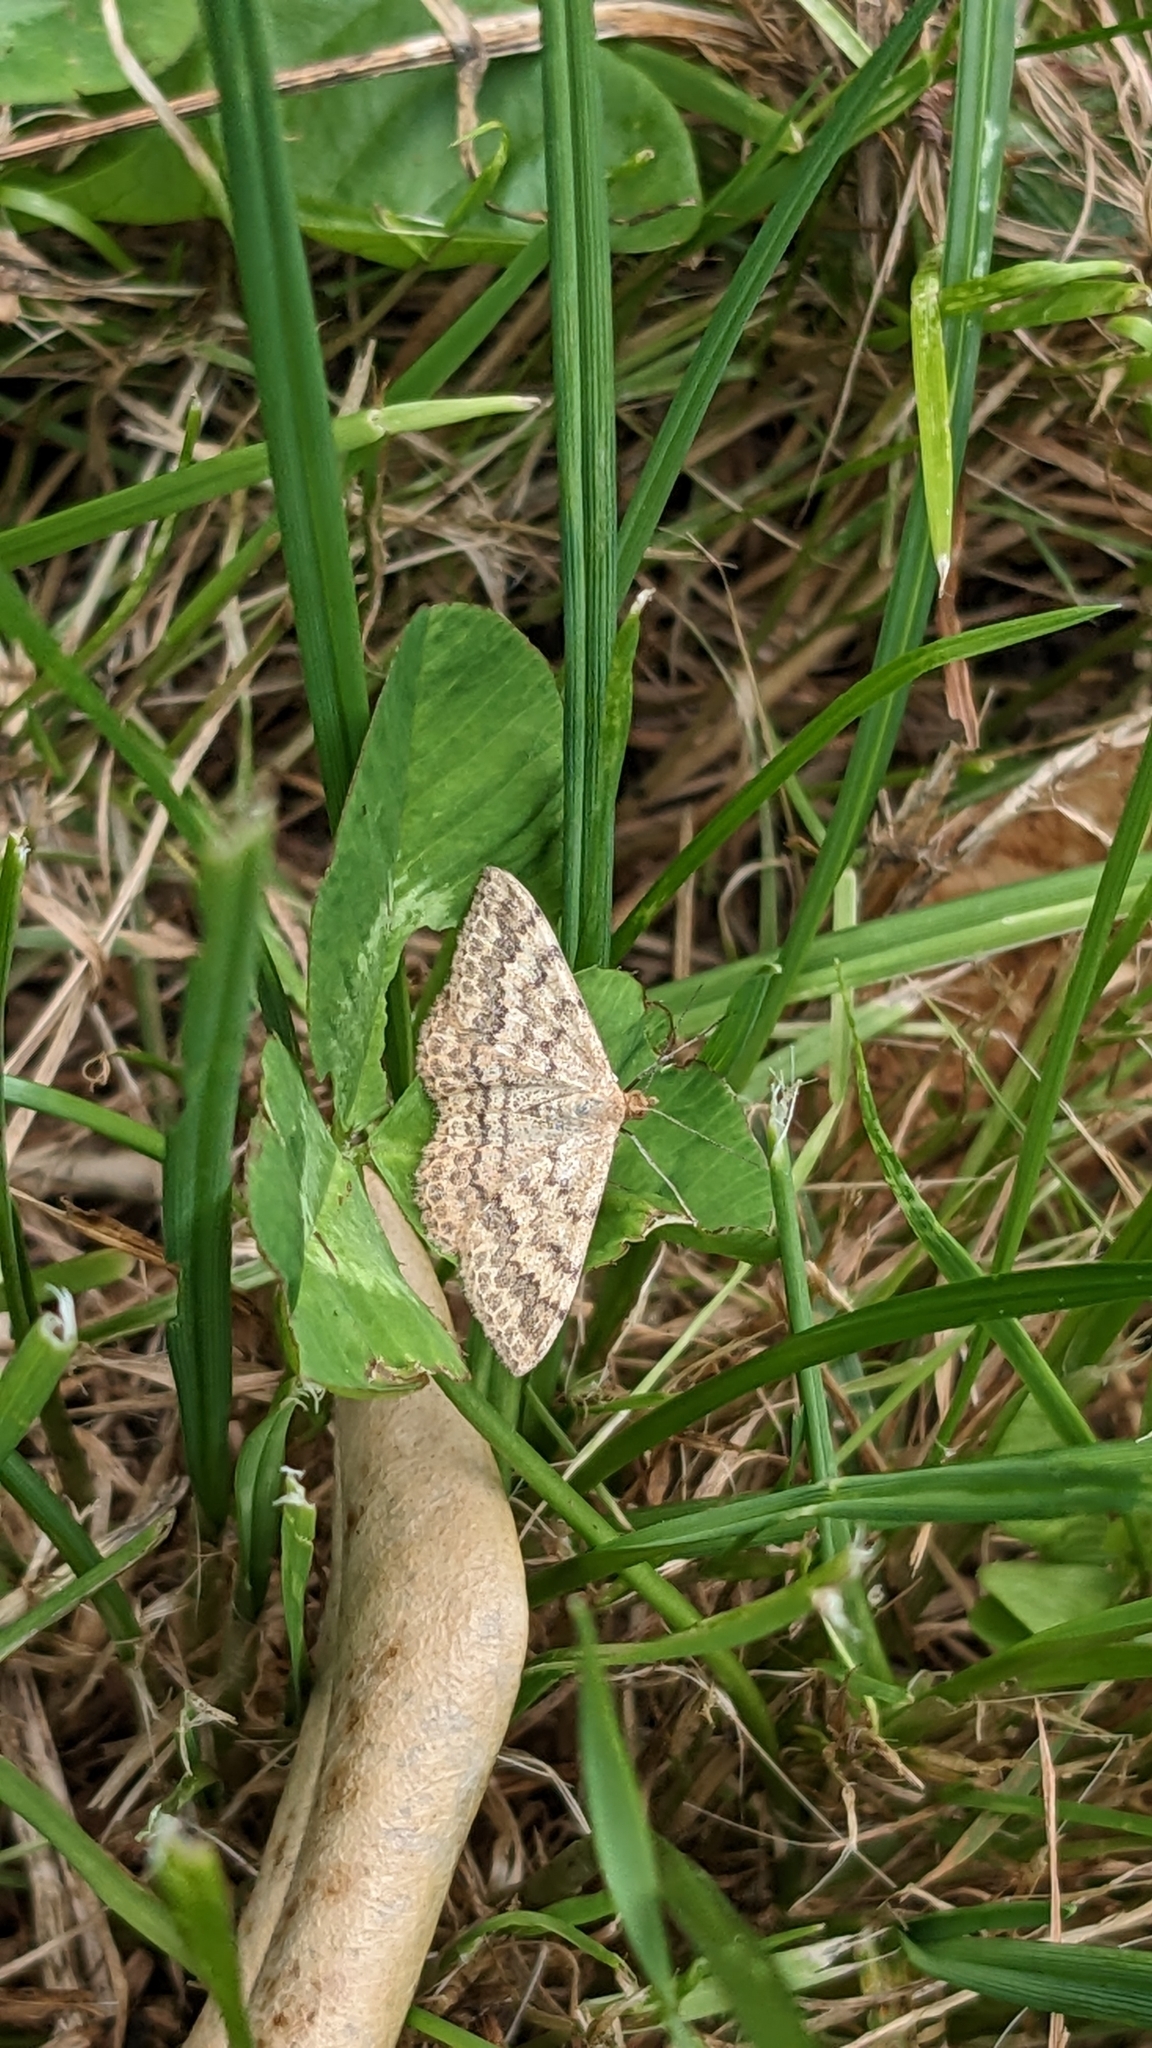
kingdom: Animalia
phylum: Arthropoda
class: Insecta
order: Lepidoptera
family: Geometridae
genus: Scopula
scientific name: Scopula rubraria
